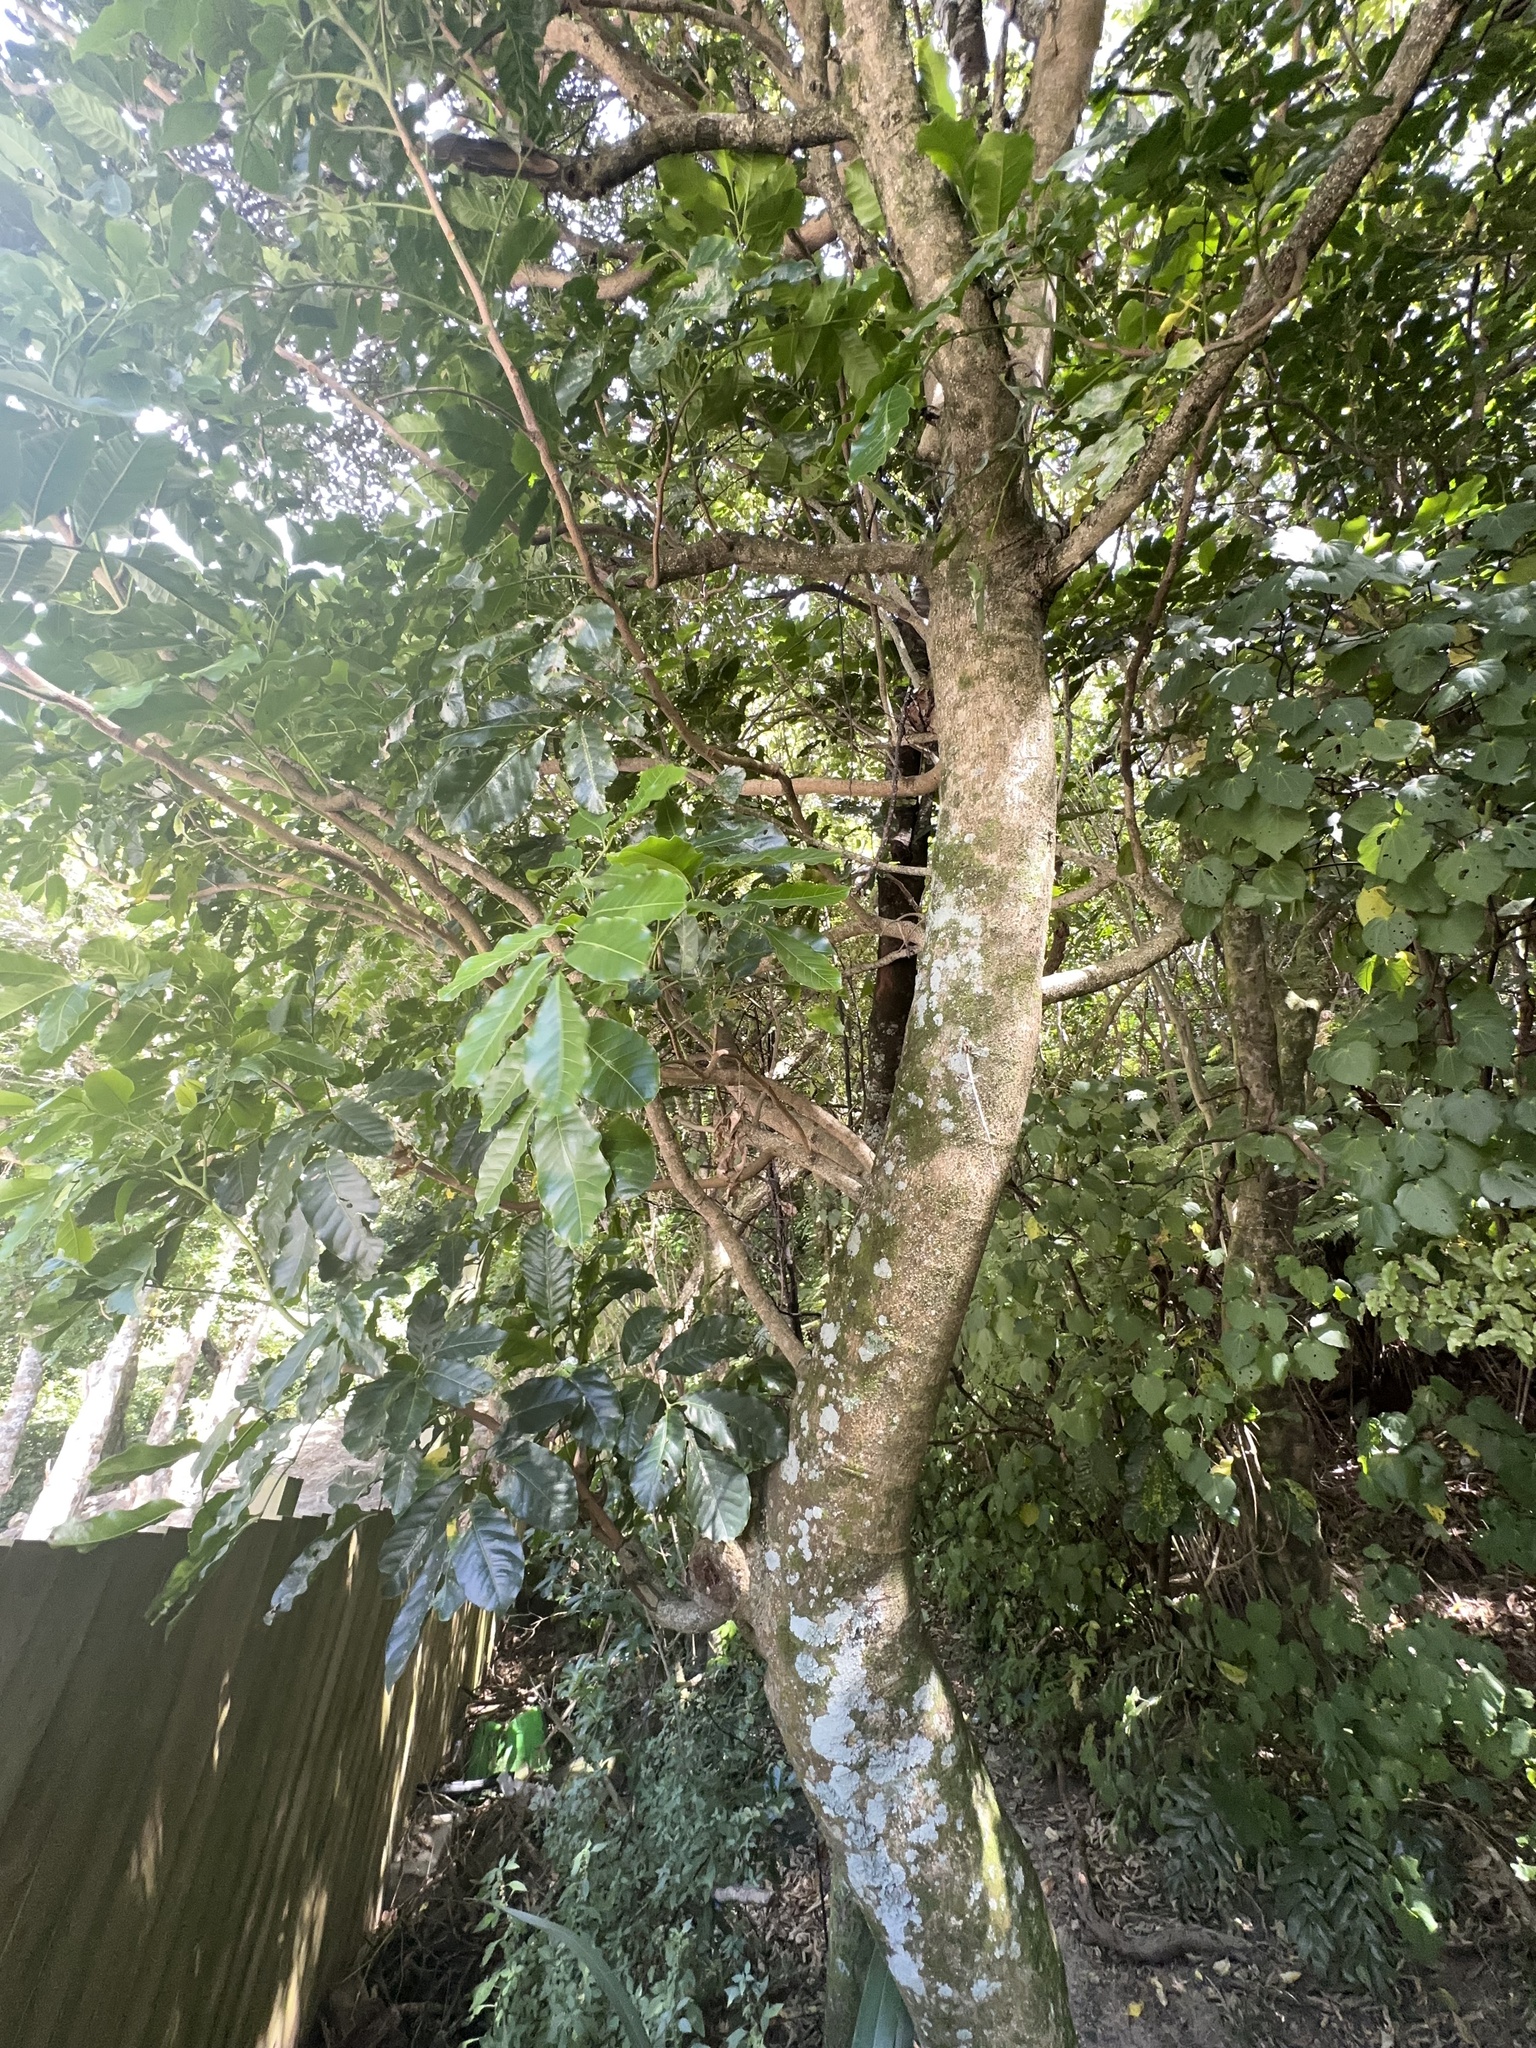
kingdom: Plantae
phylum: Tracheophyta
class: Magnoliopsida
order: Sapindales
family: Meliaceae
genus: Didymocheton
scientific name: Didymocheton spectabilis
